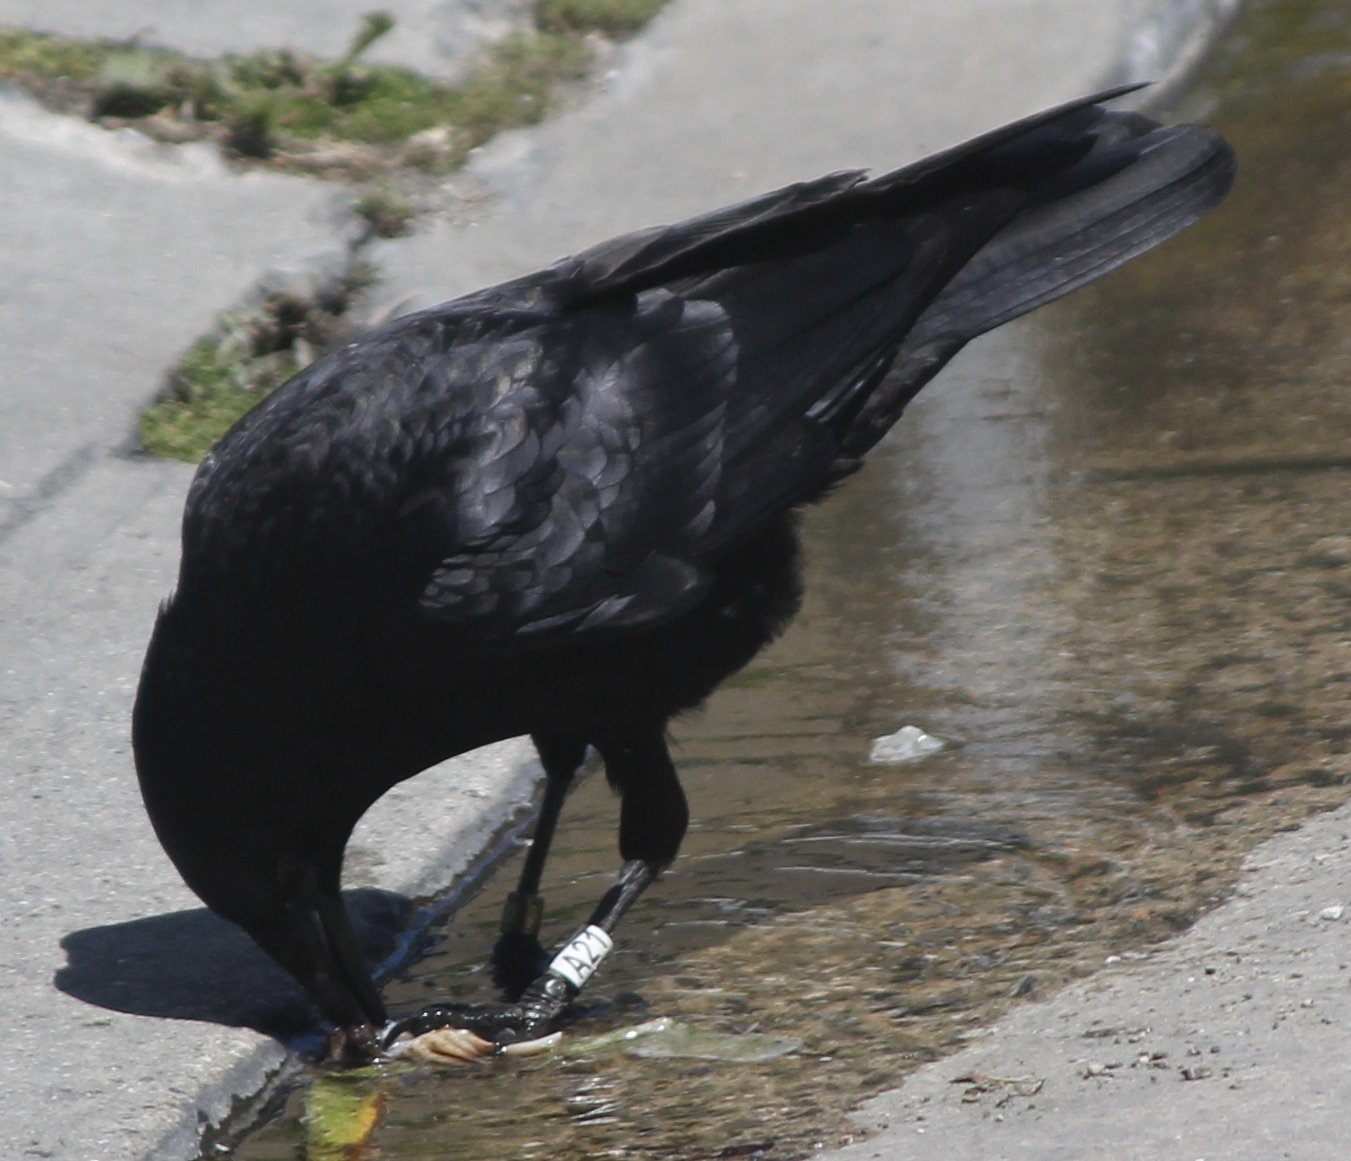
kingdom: Animalia
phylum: Chordata
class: Aves
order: Passeriformes
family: Corvidae
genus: Corvus
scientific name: Corvus brachyrhynchos
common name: American crow
